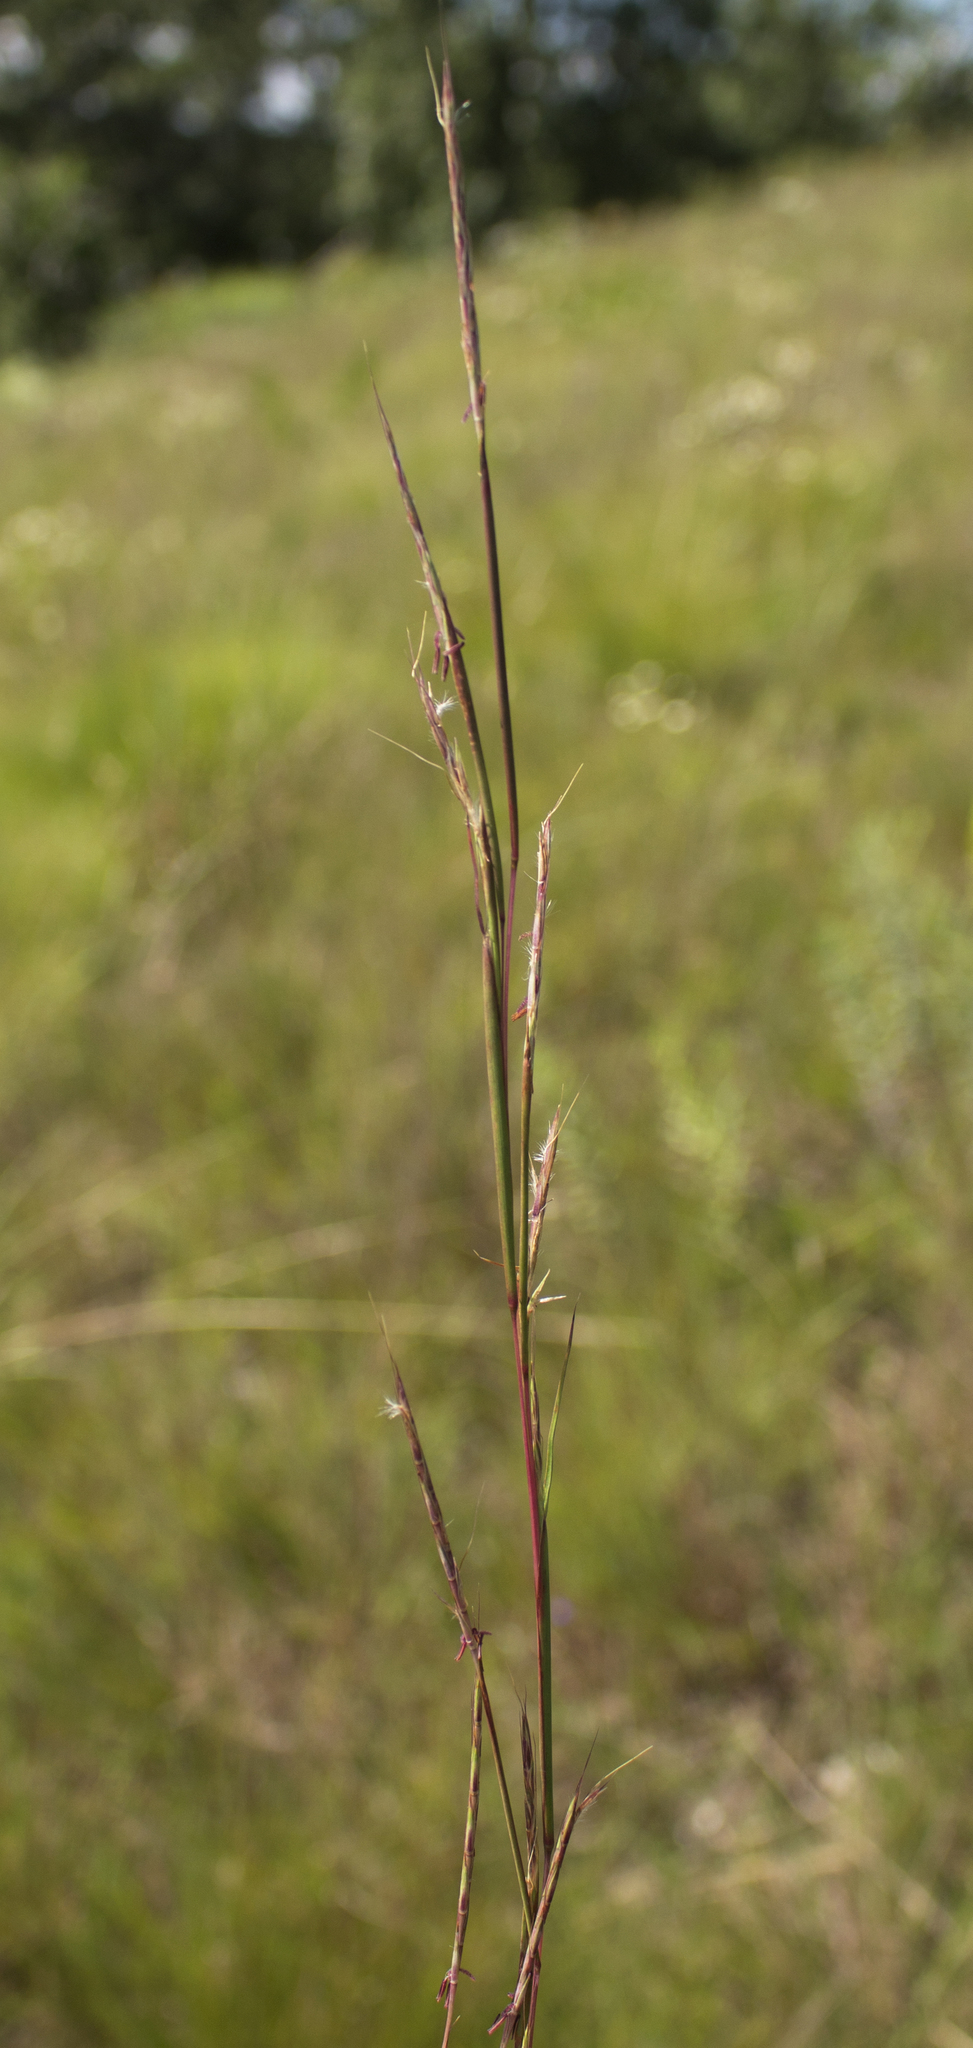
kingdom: Plantae
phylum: Tracheophyta
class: Liliopsida
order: Poales
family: Poaceae
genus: Schizachyrium
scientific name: Schizachyrium scoparium
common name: Little bluestem
